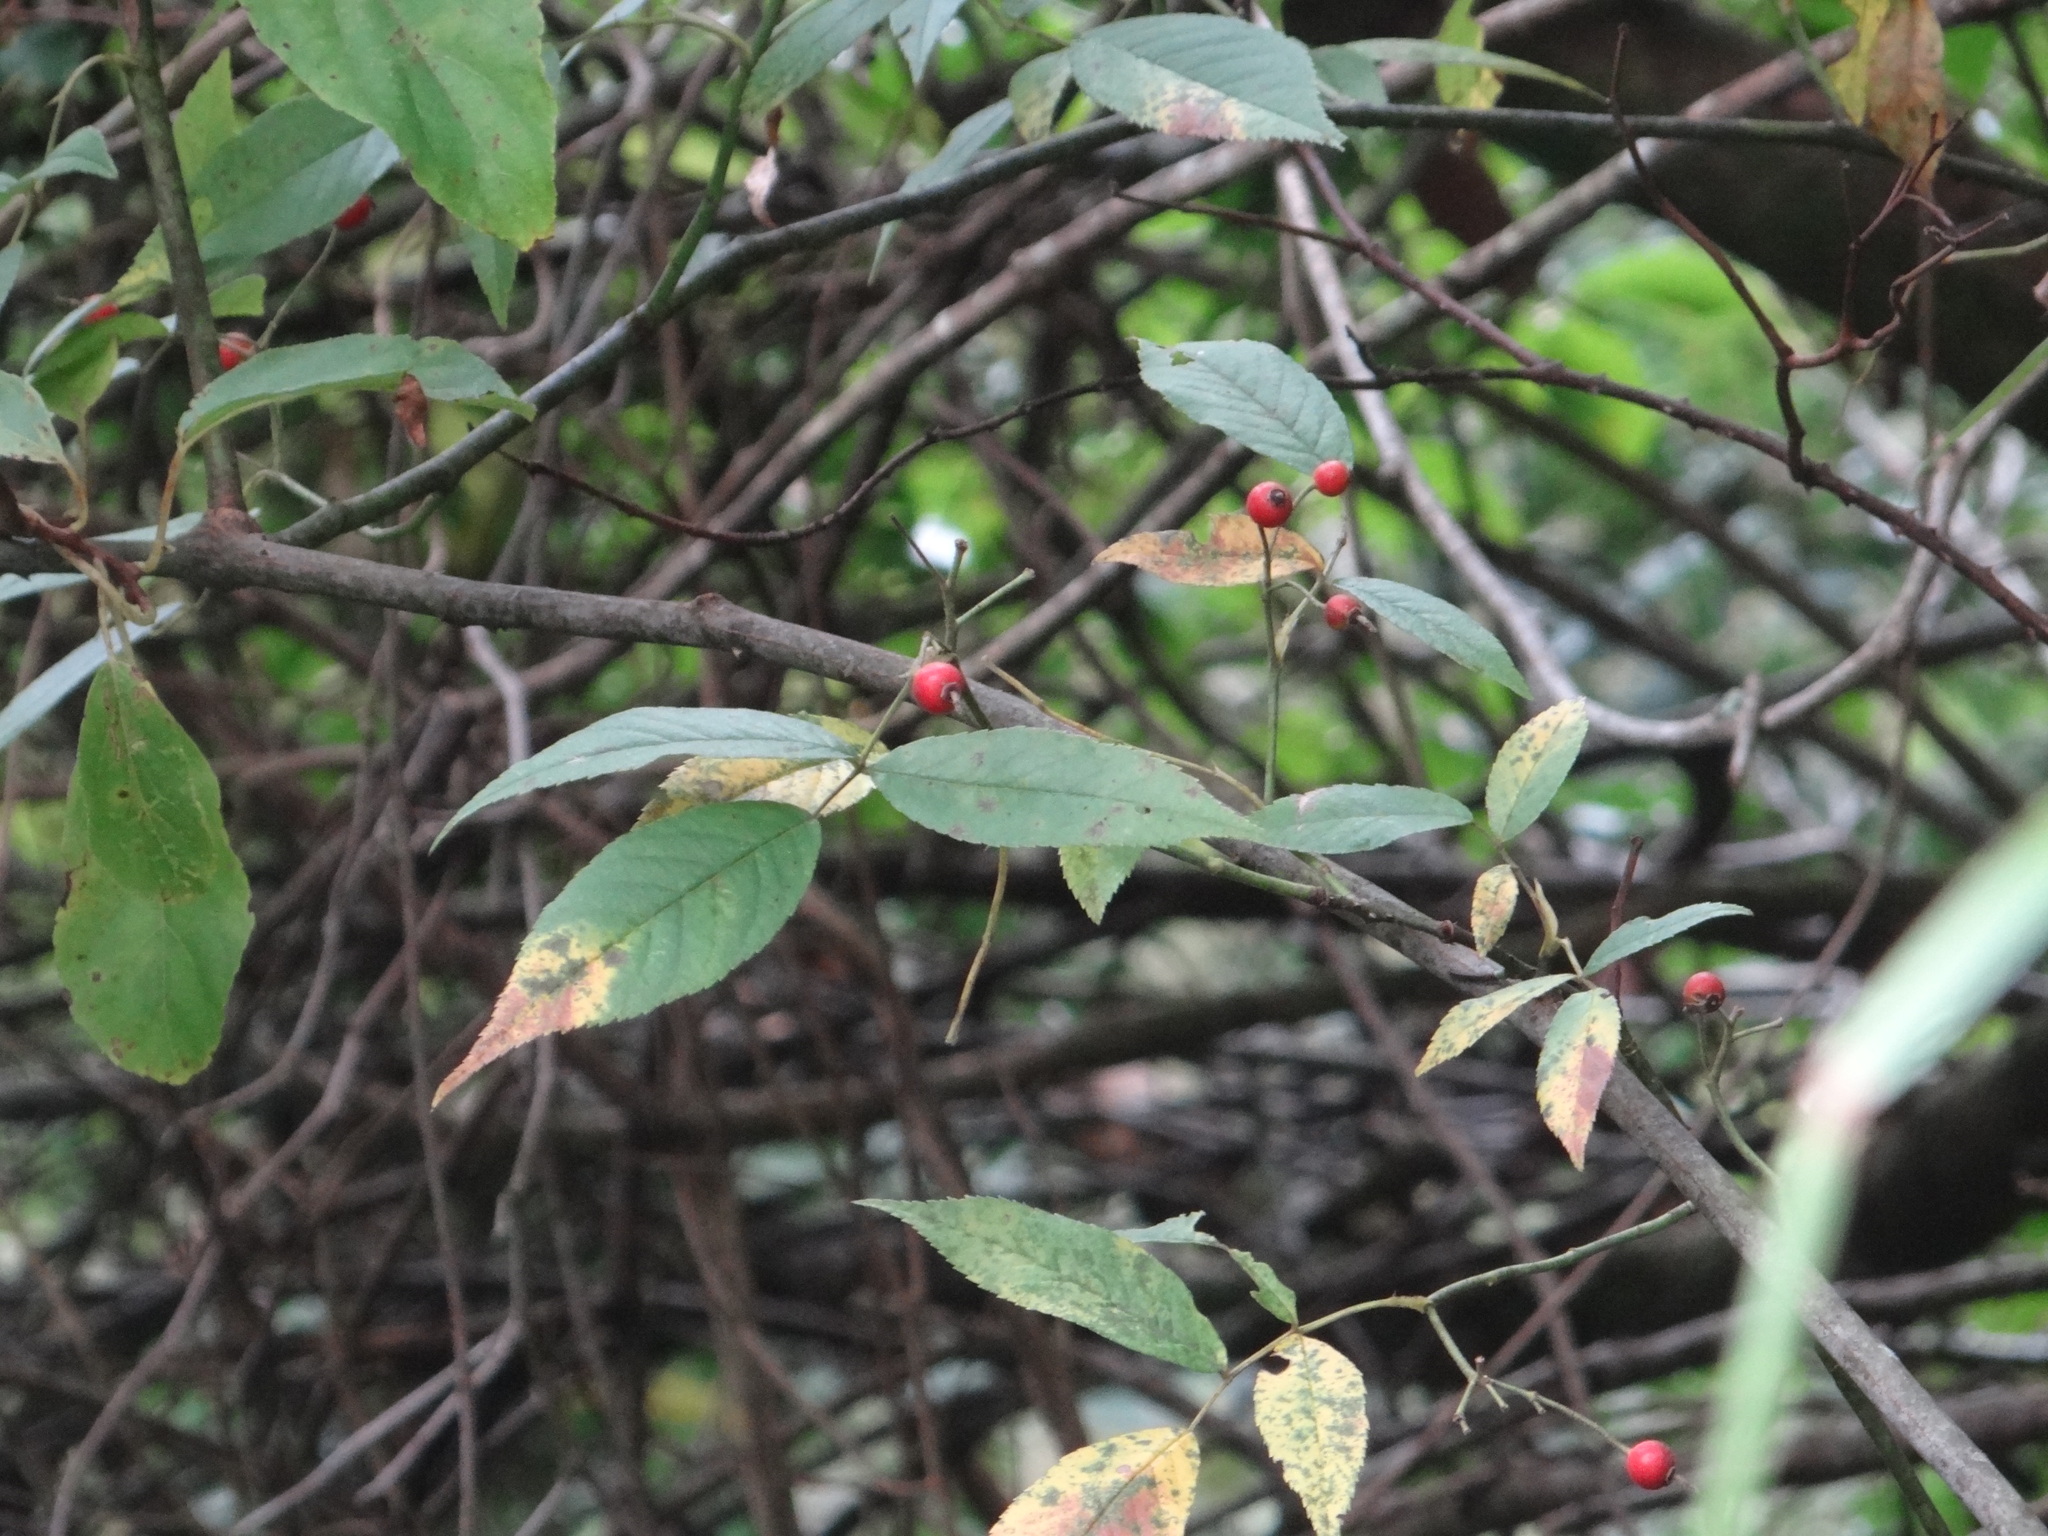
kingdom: Plantae
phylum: Tracheophyta
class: Magnoliopsida
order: Rosales
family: Rosaceae
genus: Rosa
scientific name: Rosa sambucina
